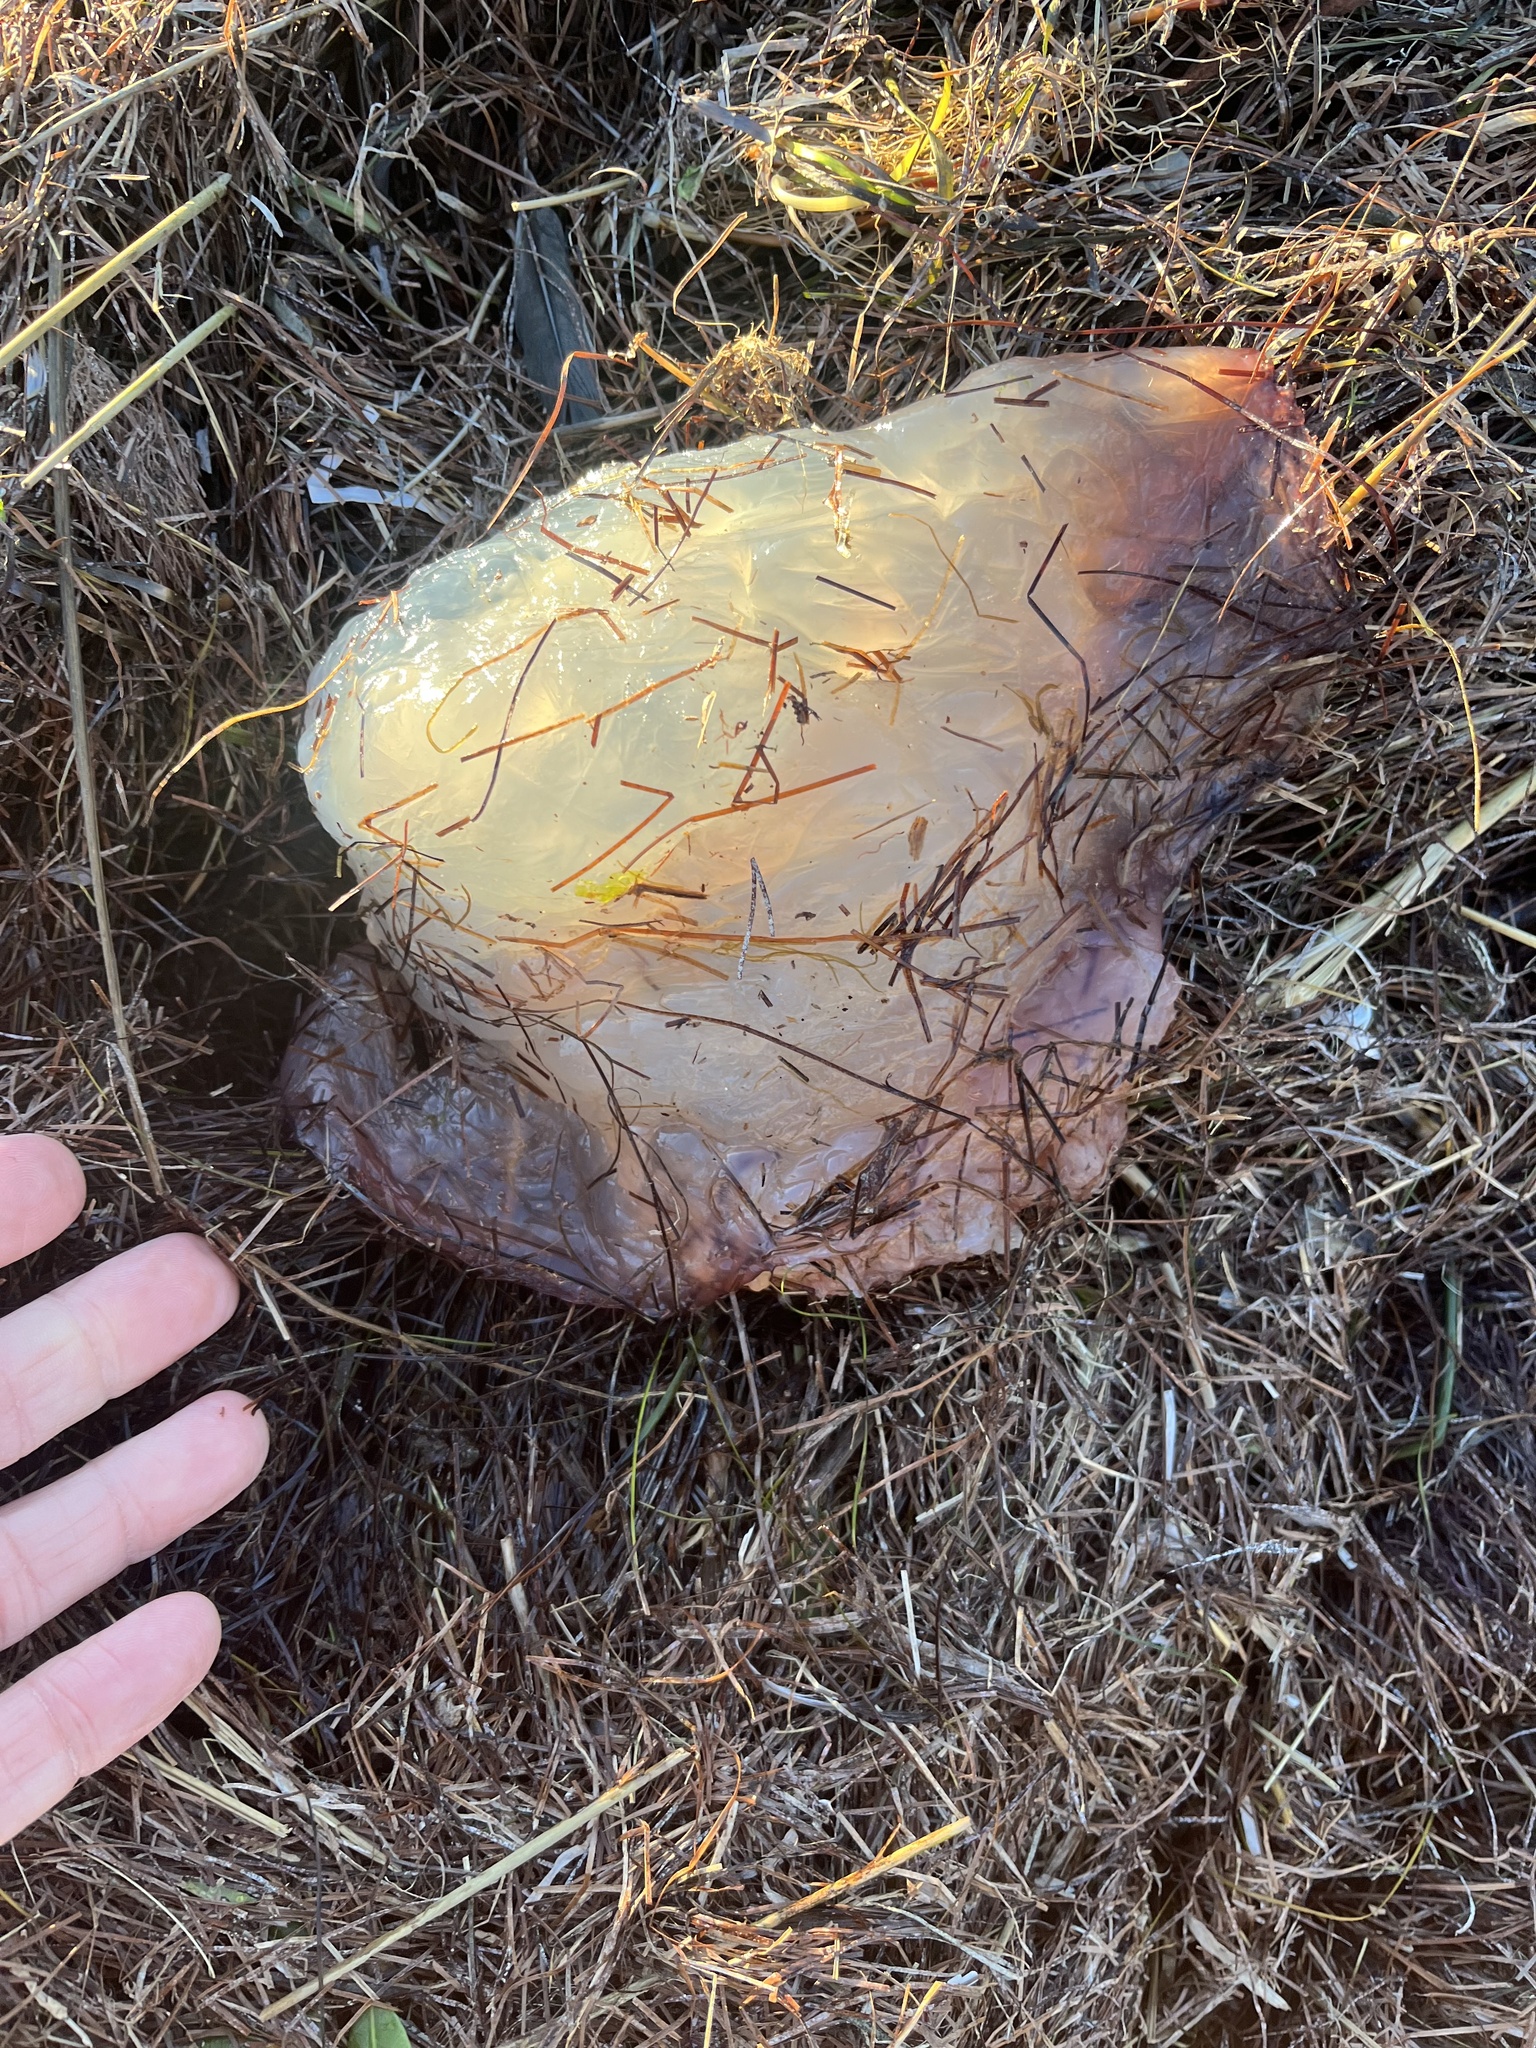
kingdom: Animalia
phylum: Cnidaria
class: Scyphozoa
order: Rhizostomeae
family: Stomolophidae
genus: Stomolophus
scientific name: Stomolophus meleagris
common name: Cabbagehead
